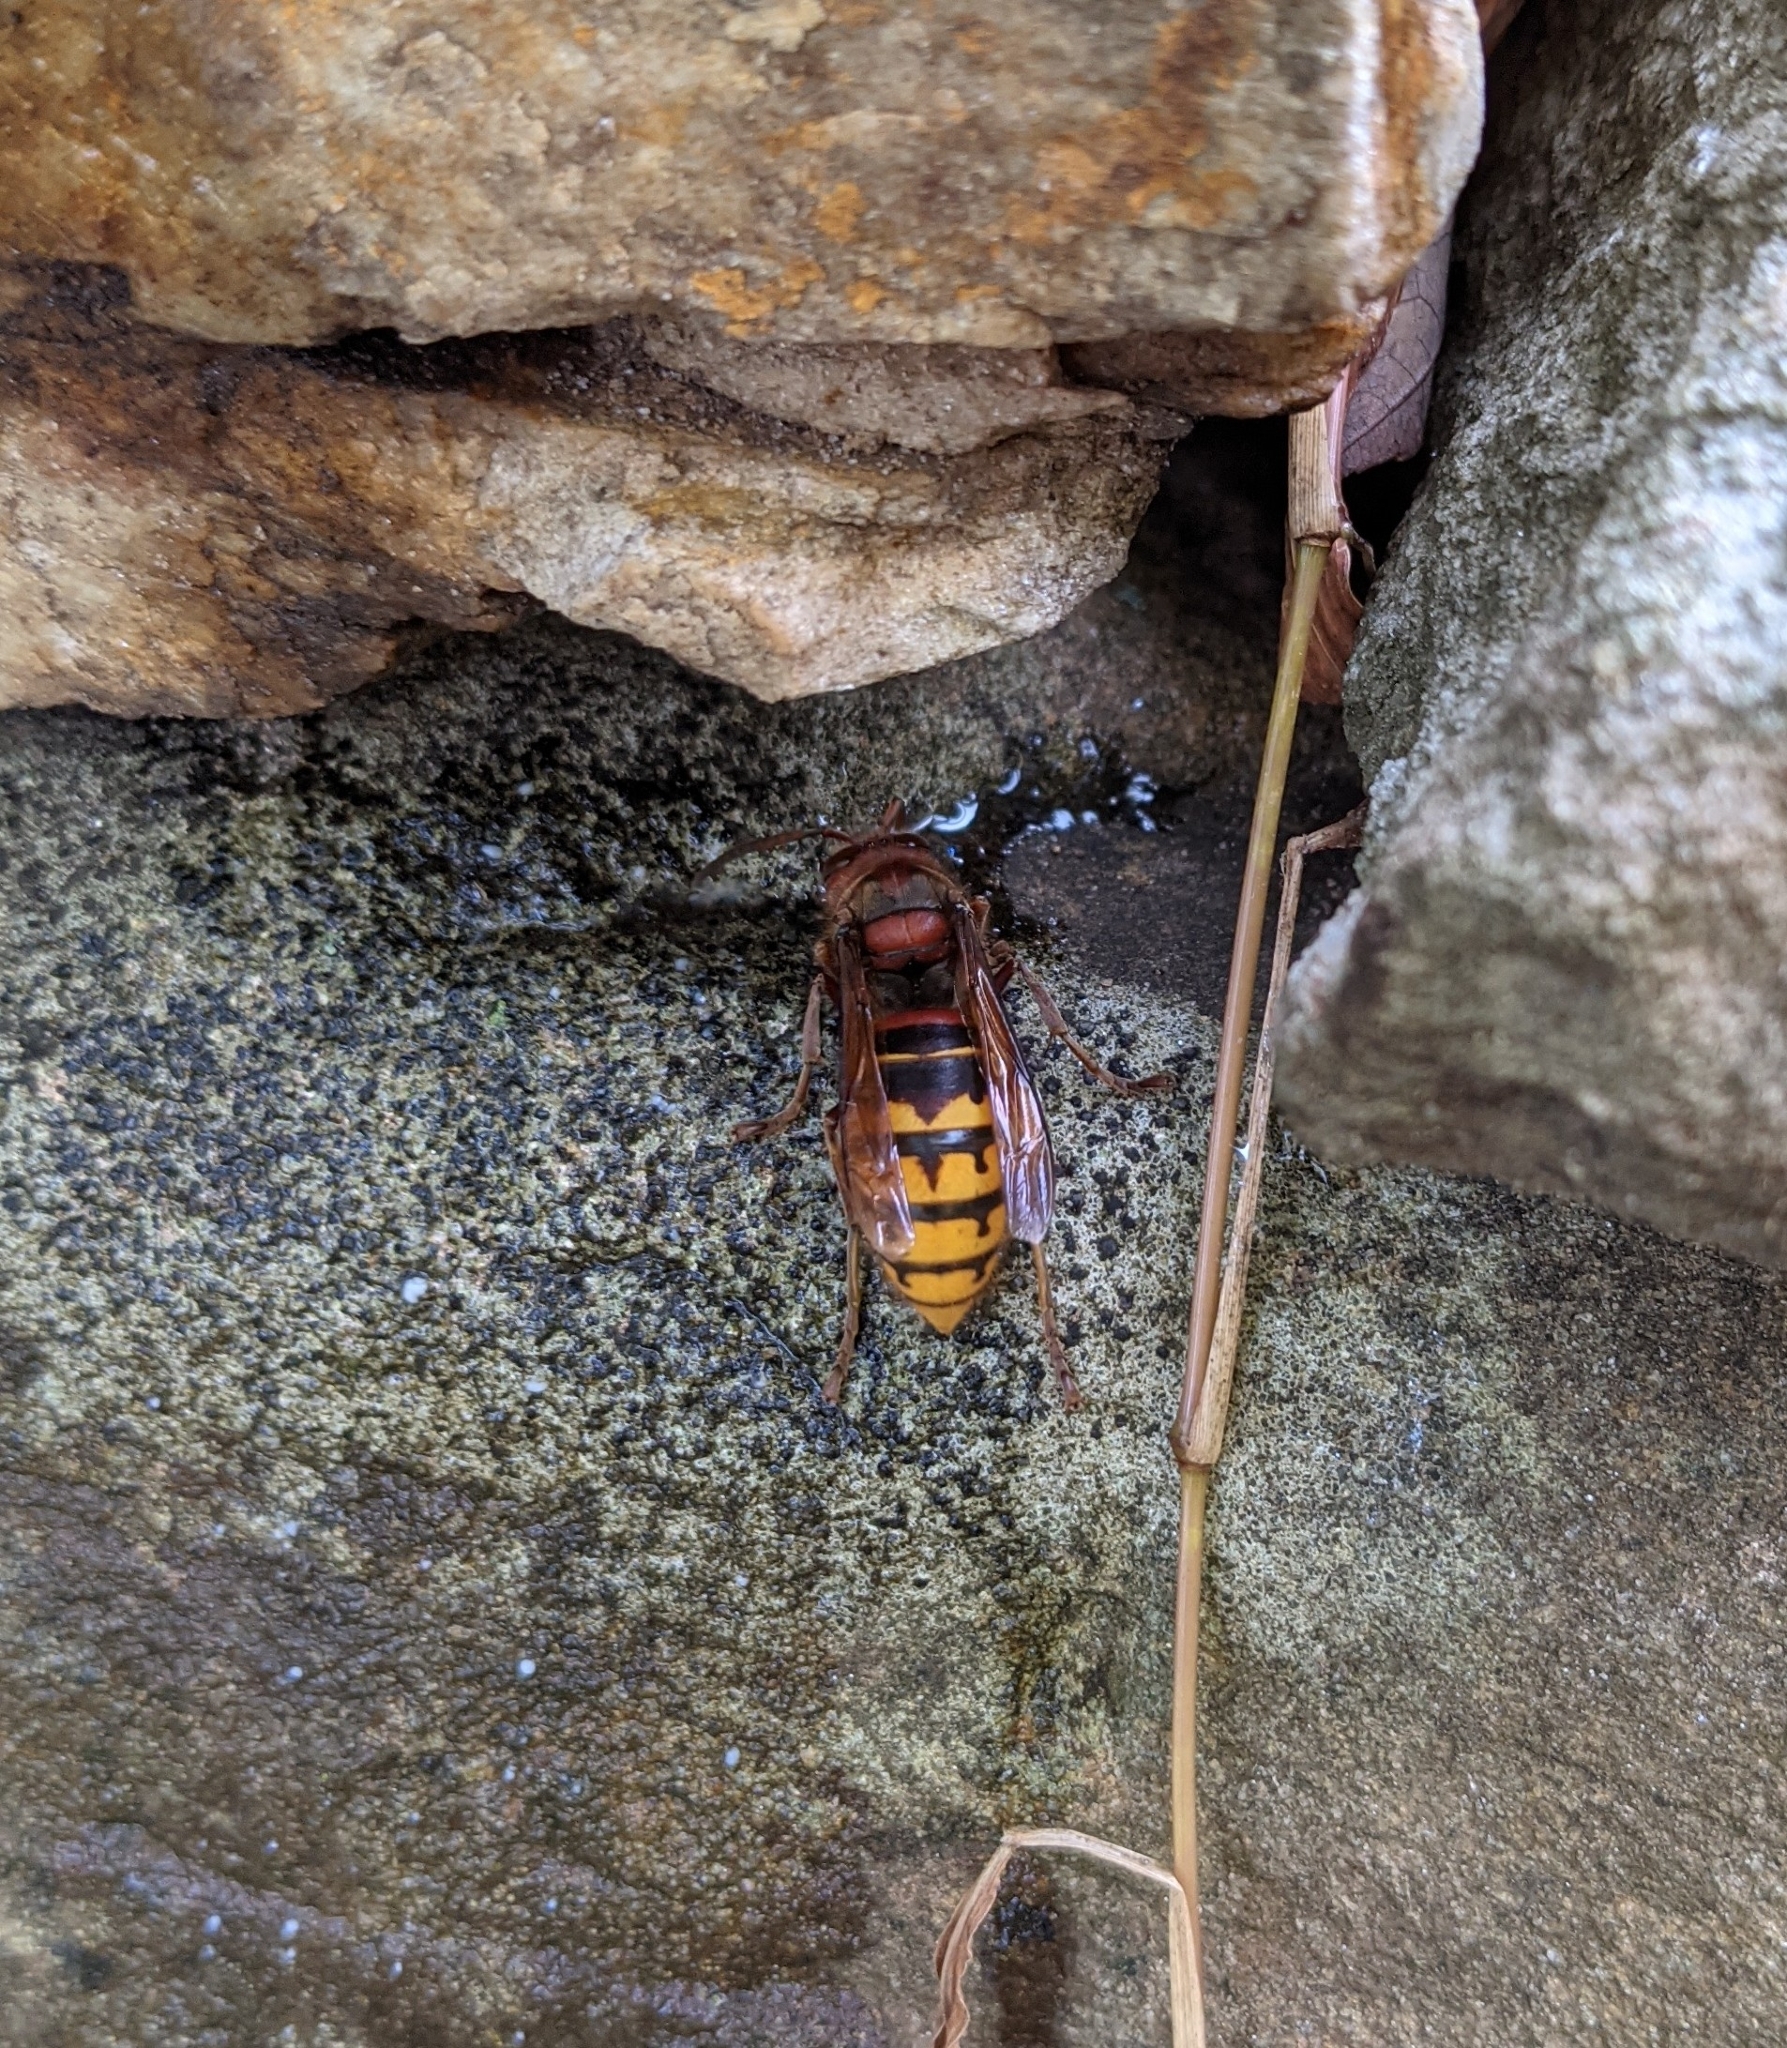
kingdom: Animalia
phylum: Arthropoda
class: Insecta
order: Hymenoptera
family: Vespidae
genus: Vespa
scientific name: Vespa crabro
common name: Hornet
